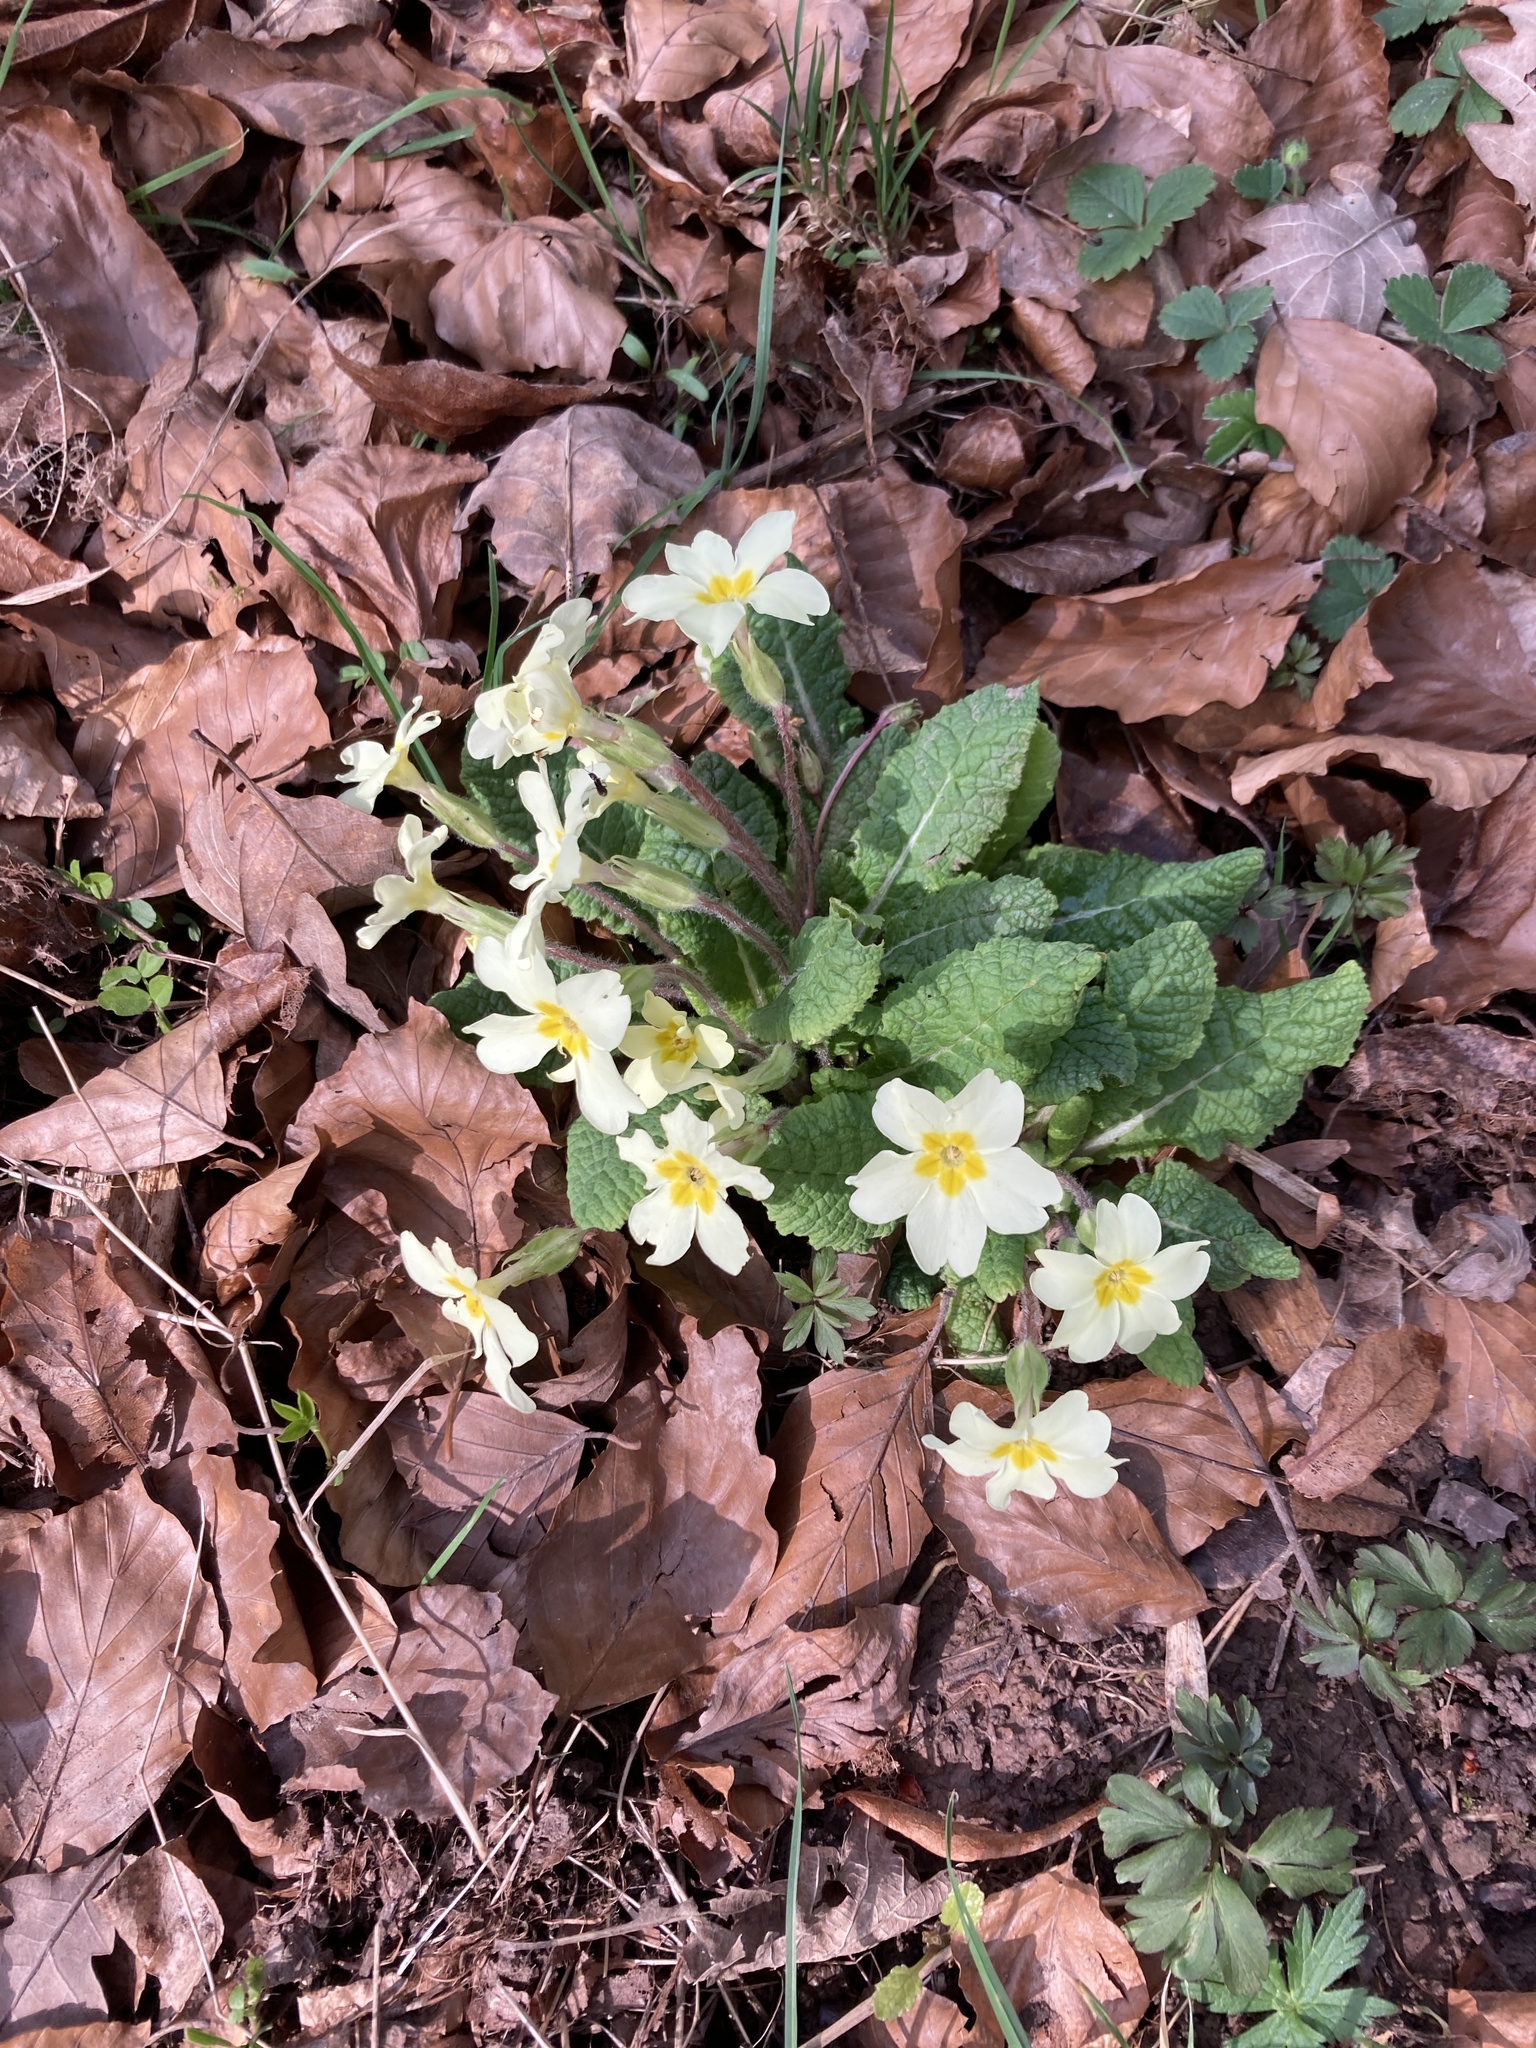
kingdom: Plantae
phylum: Tracheophyta
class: Magnoliopsida
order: Ericales
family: Primulaceae
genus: Primula
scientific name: Primula vulgaris
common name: Primrose
